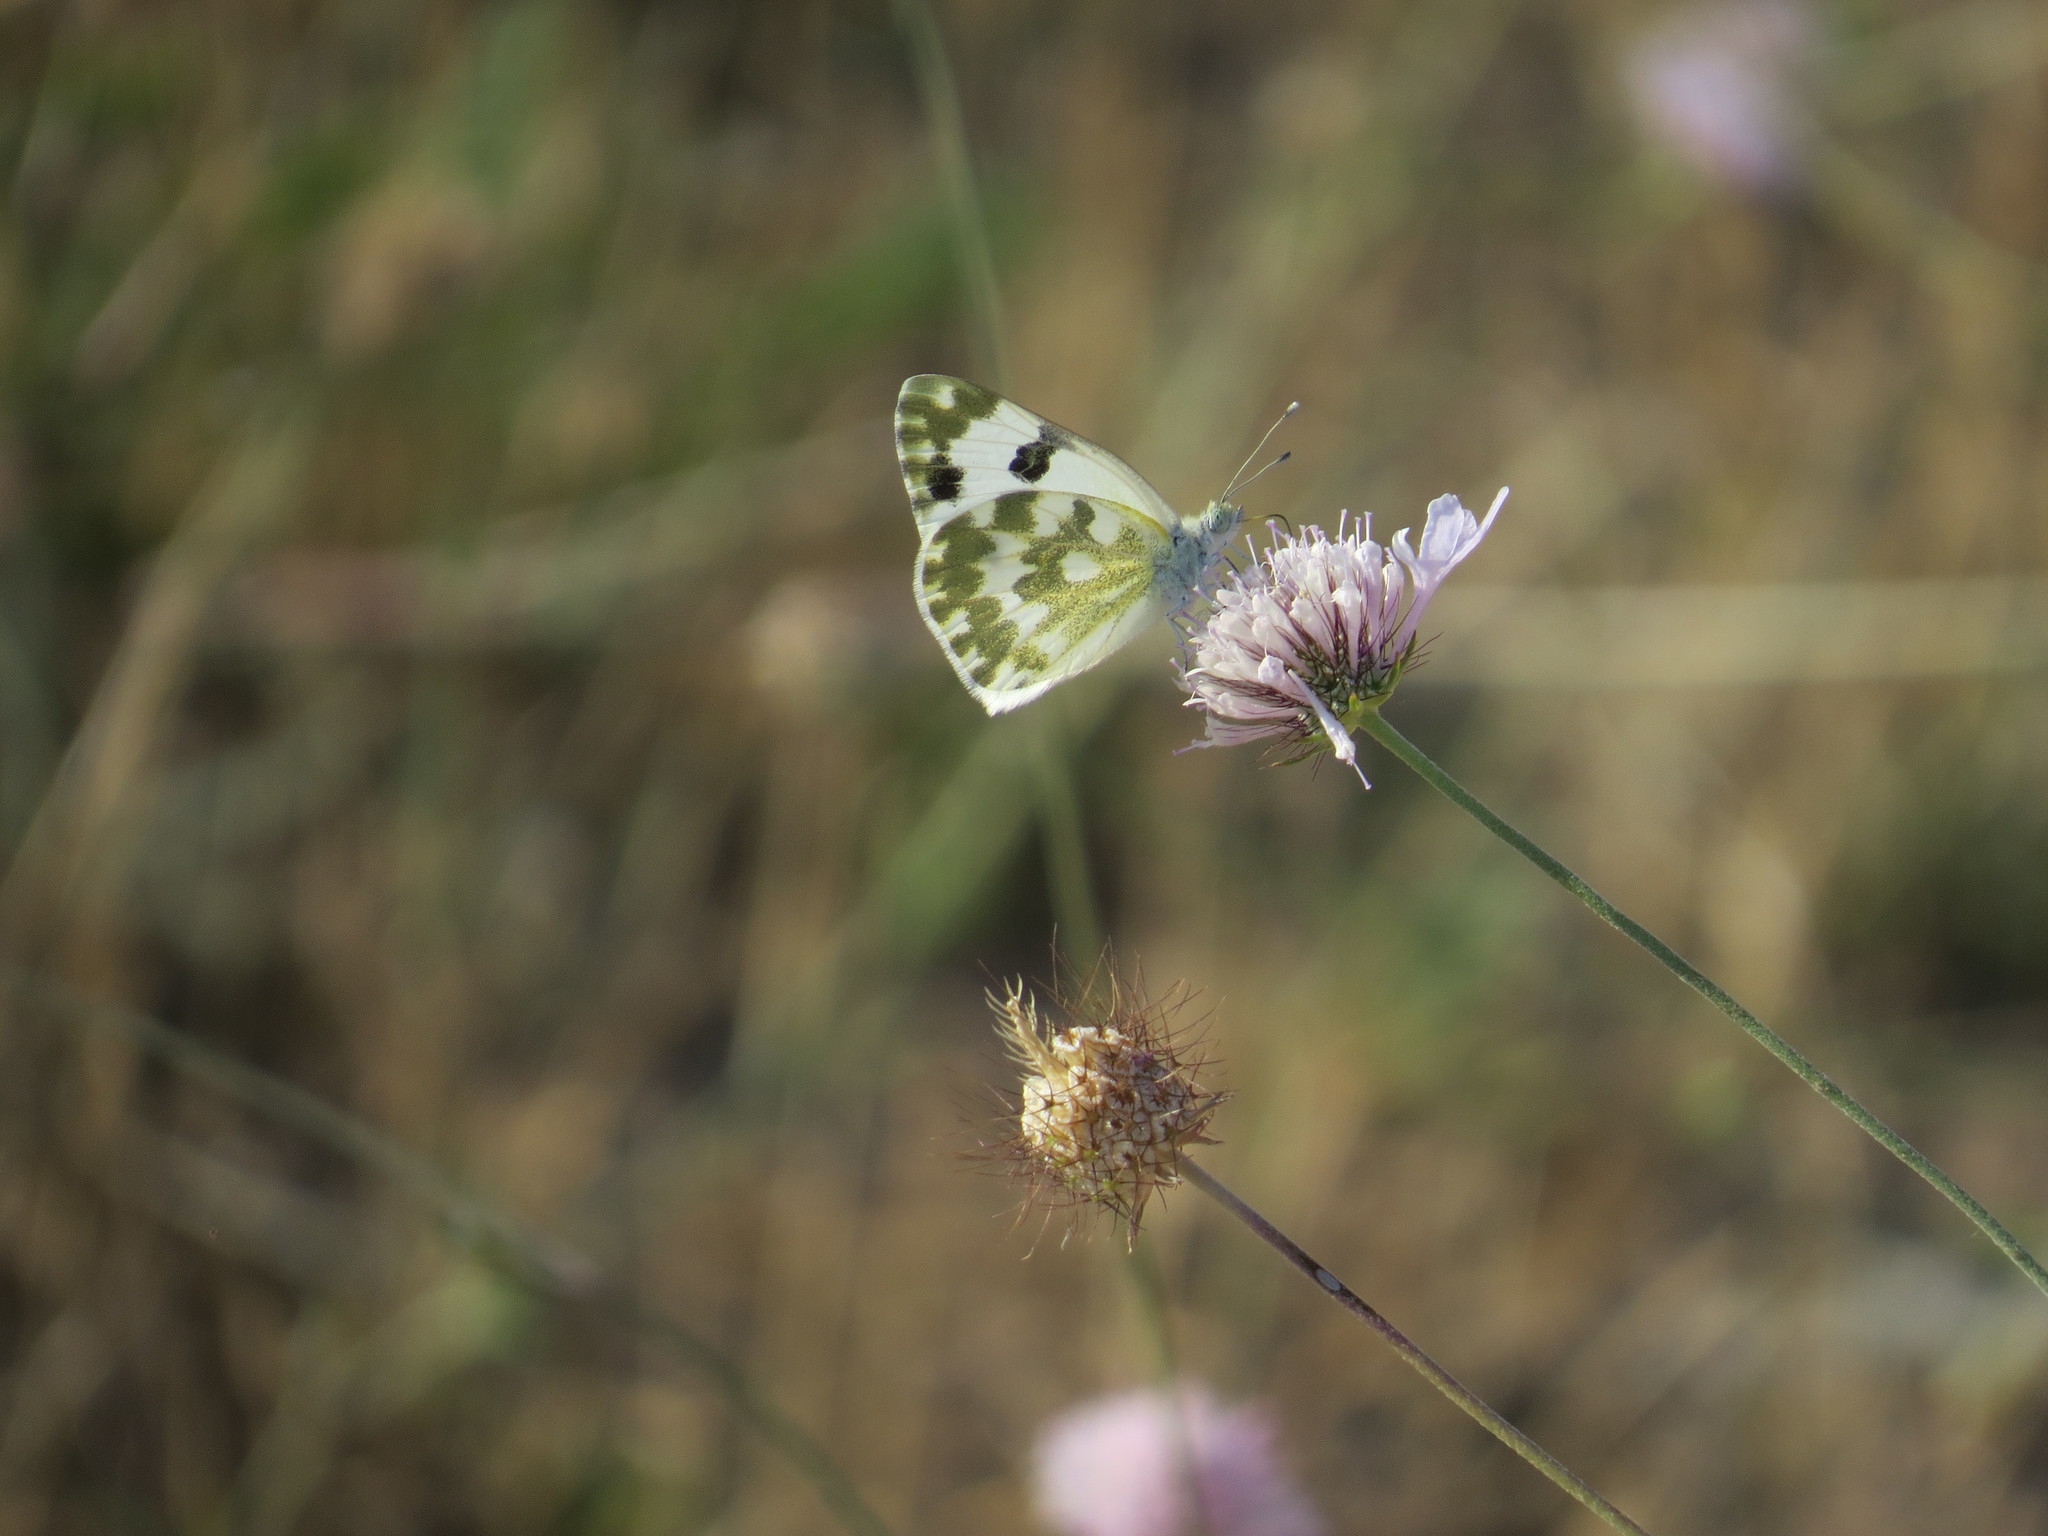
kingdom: Animalia
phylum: Arthropoda
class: Insecta
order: Lepidoptera
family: Pieridae
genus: Pontia
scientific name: Pontia daplidice
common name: Bath white
